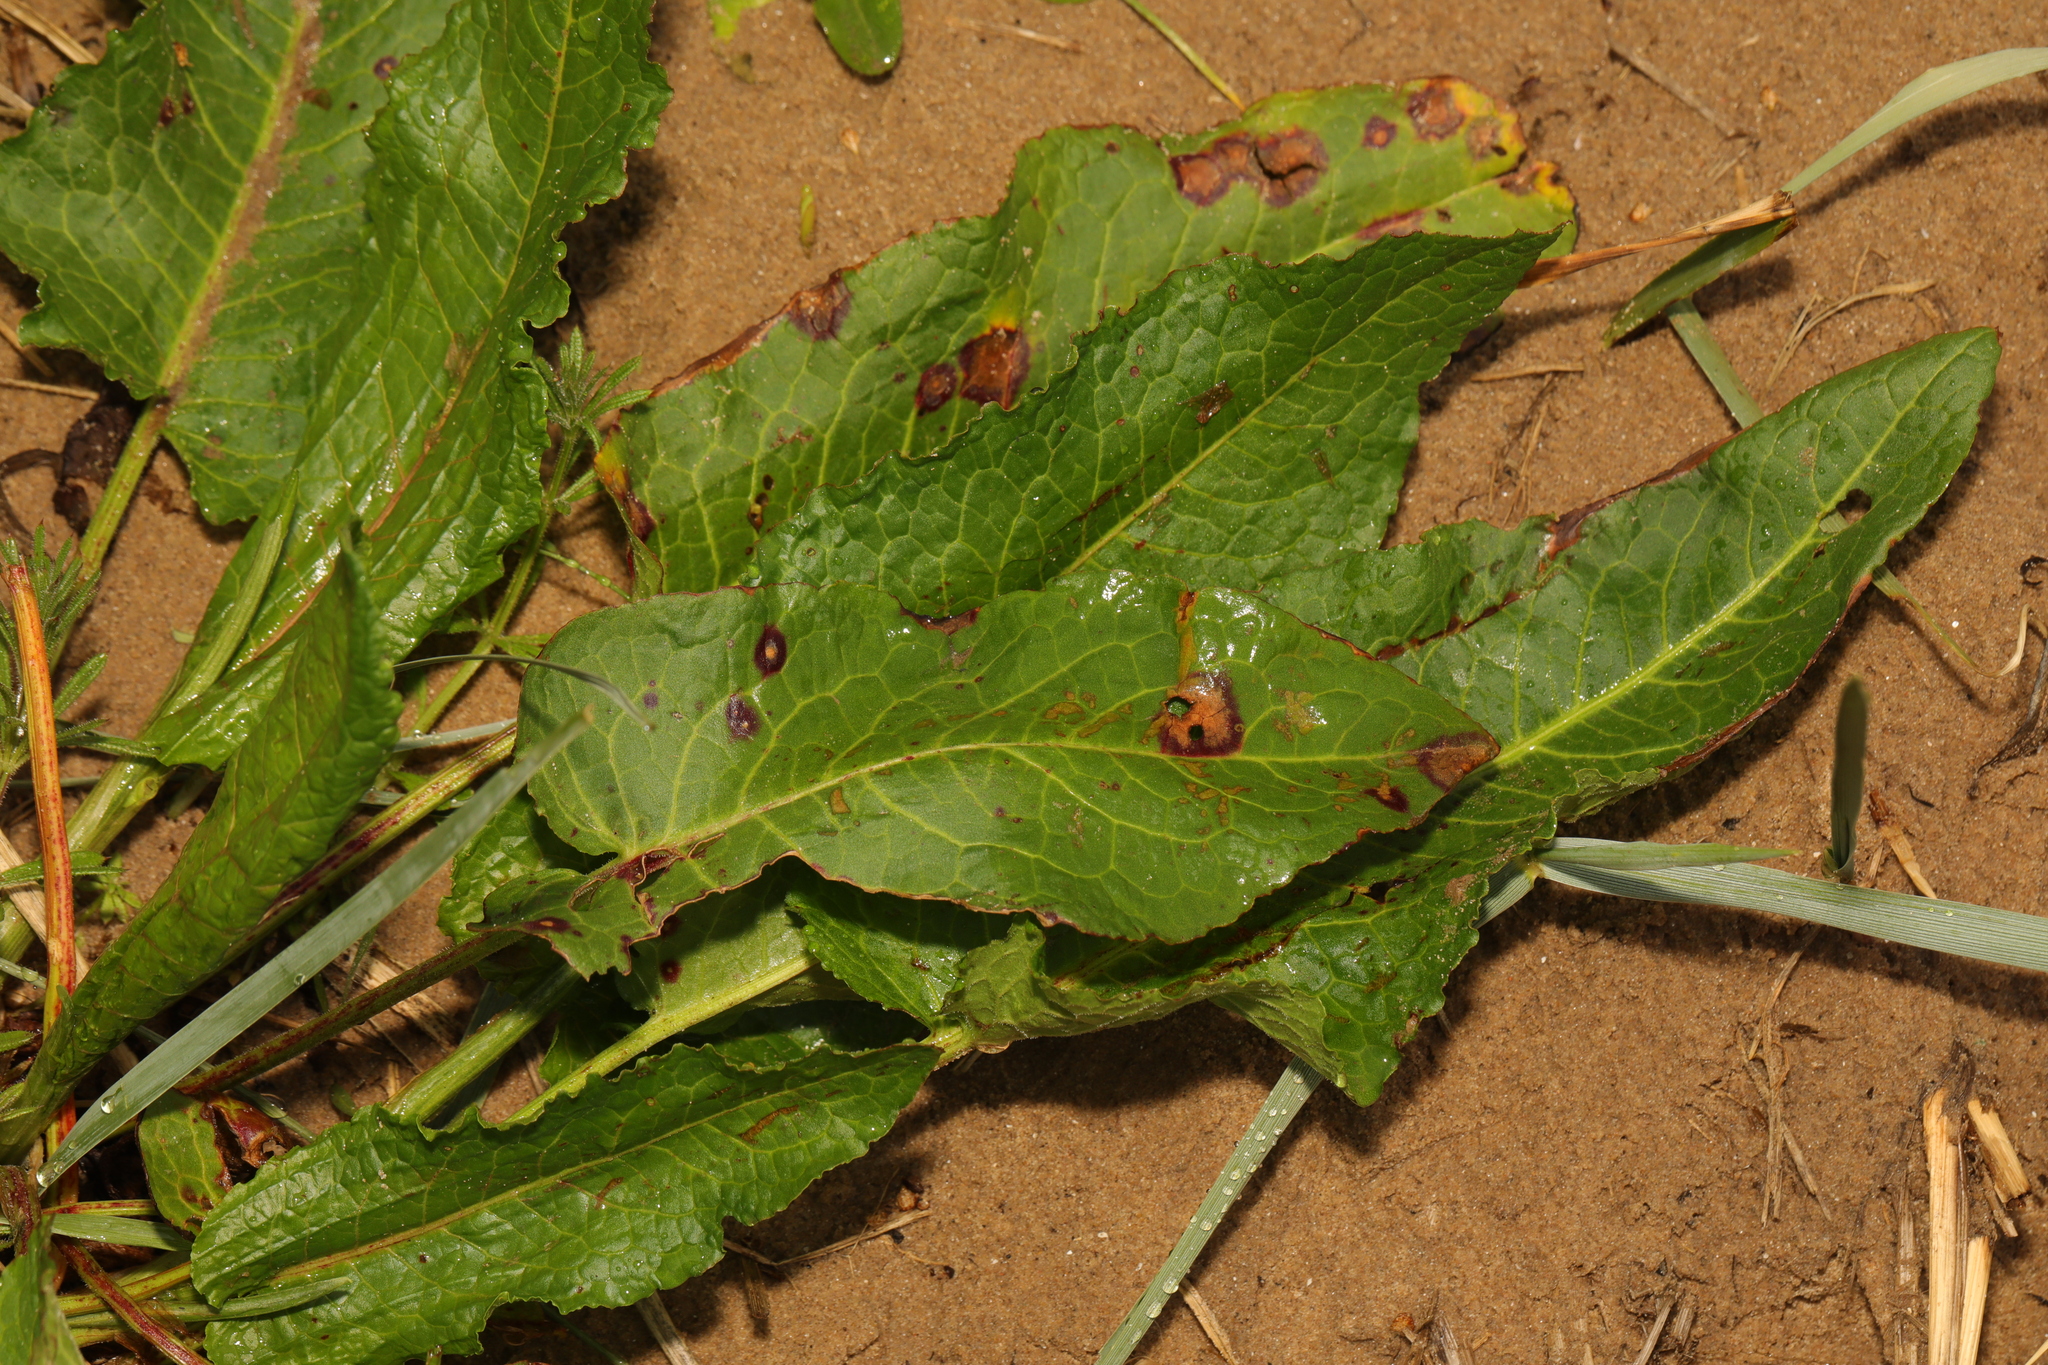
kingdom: Plantae
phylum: Tracheophyta
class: Magnoliopsida
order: Caryophyllales
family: Polygonaceae
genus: Rumex
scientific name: Rumex obtusifolius
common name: Bitter dock
